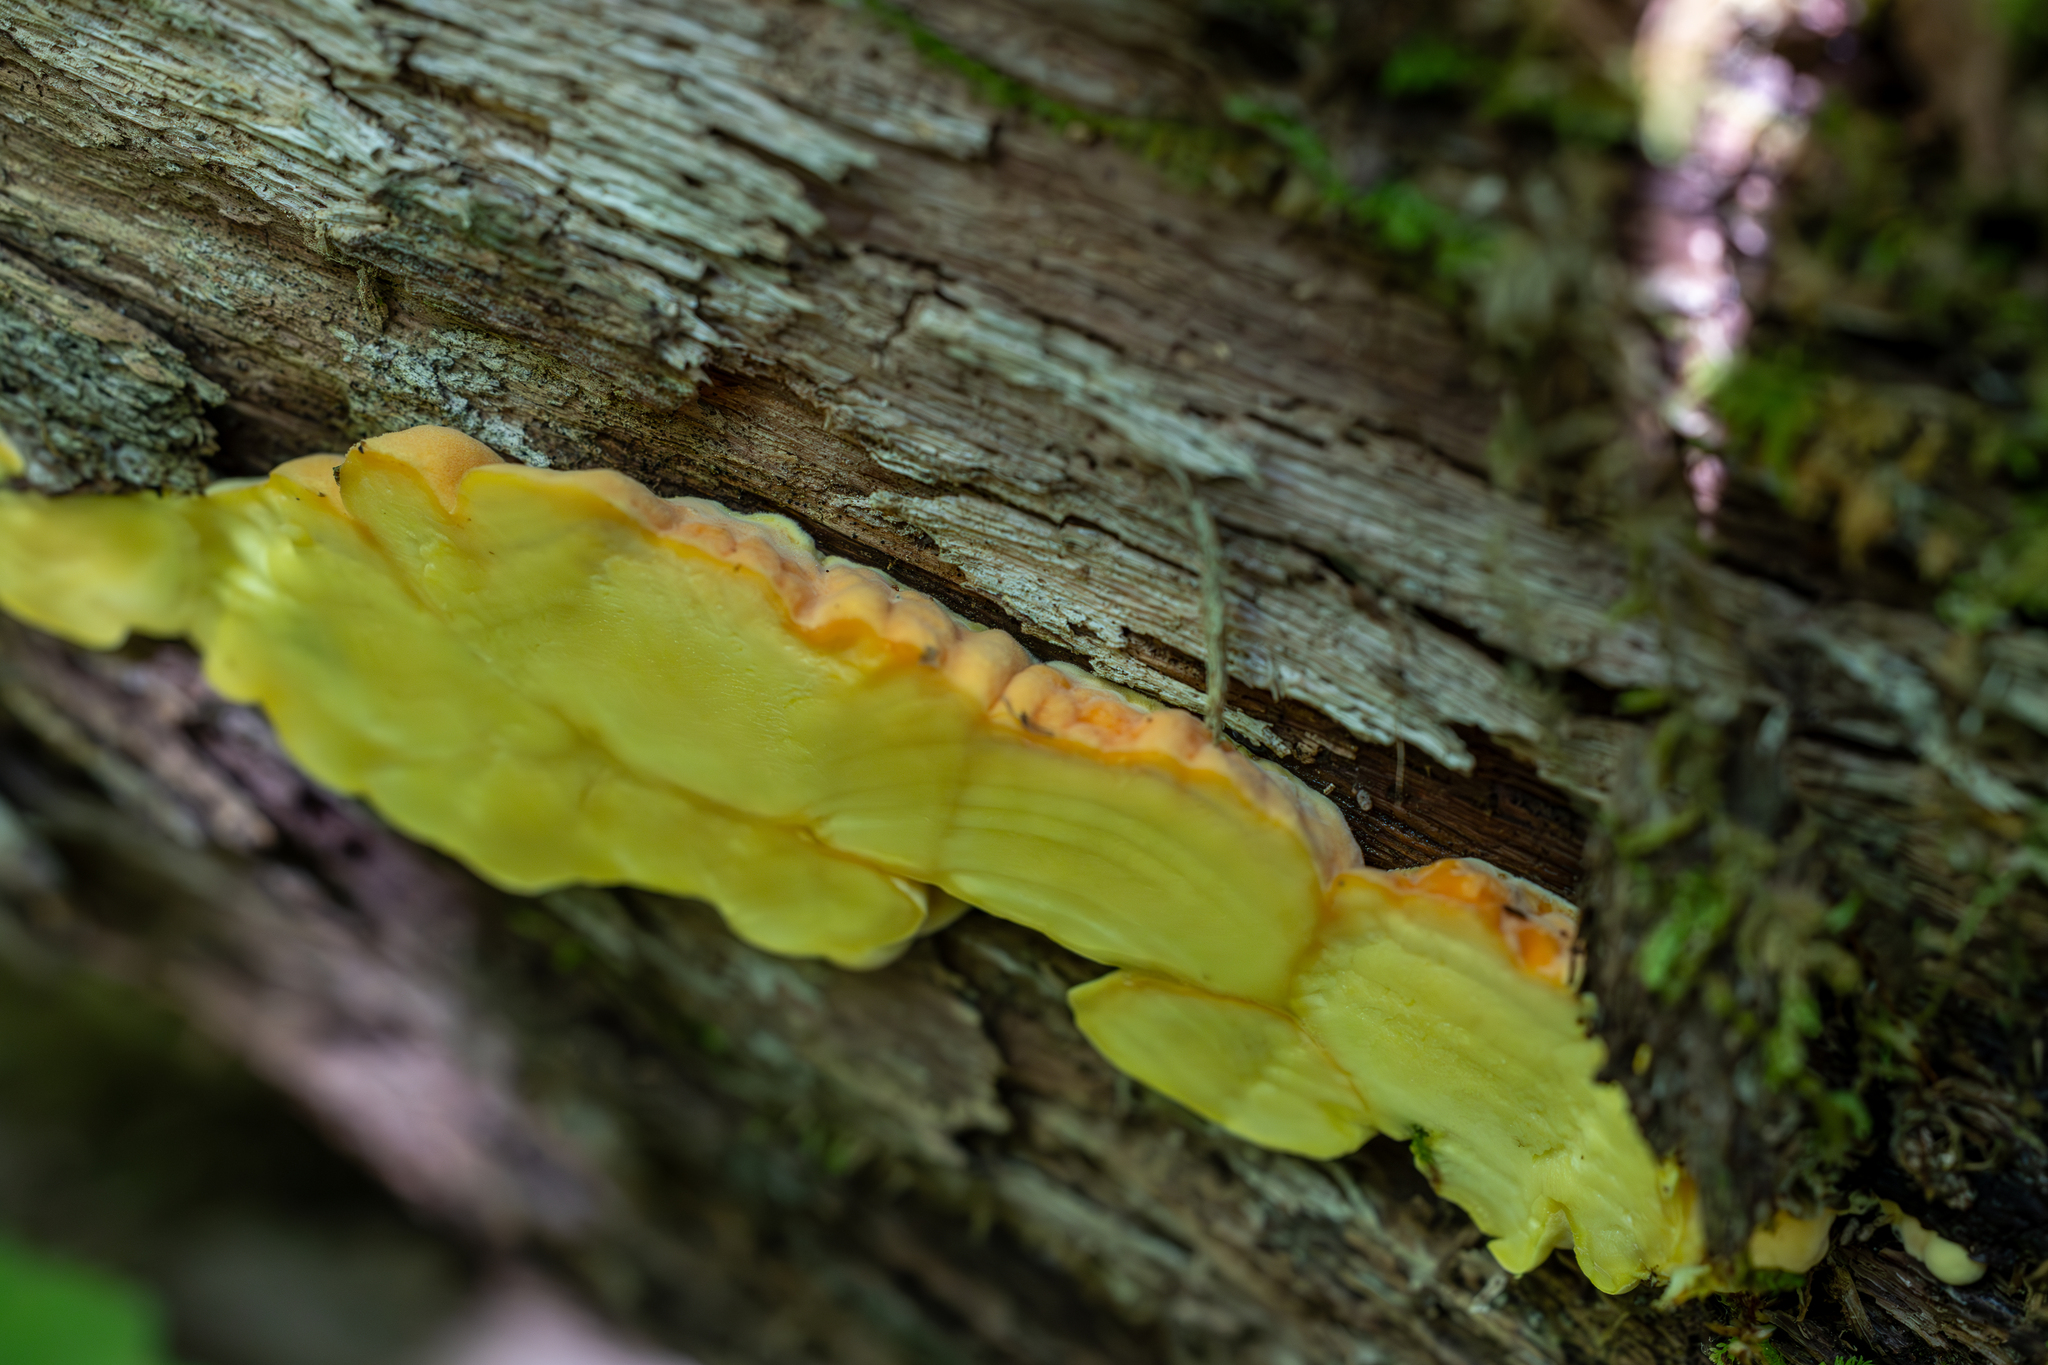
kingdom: Fungi
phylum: Basidiomycota
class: Agaricomycetes
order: Polyporales
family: Laetiporaceae
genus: Laetiporus
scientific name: Laetiporus sulphureus
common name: Chicken of the woods
